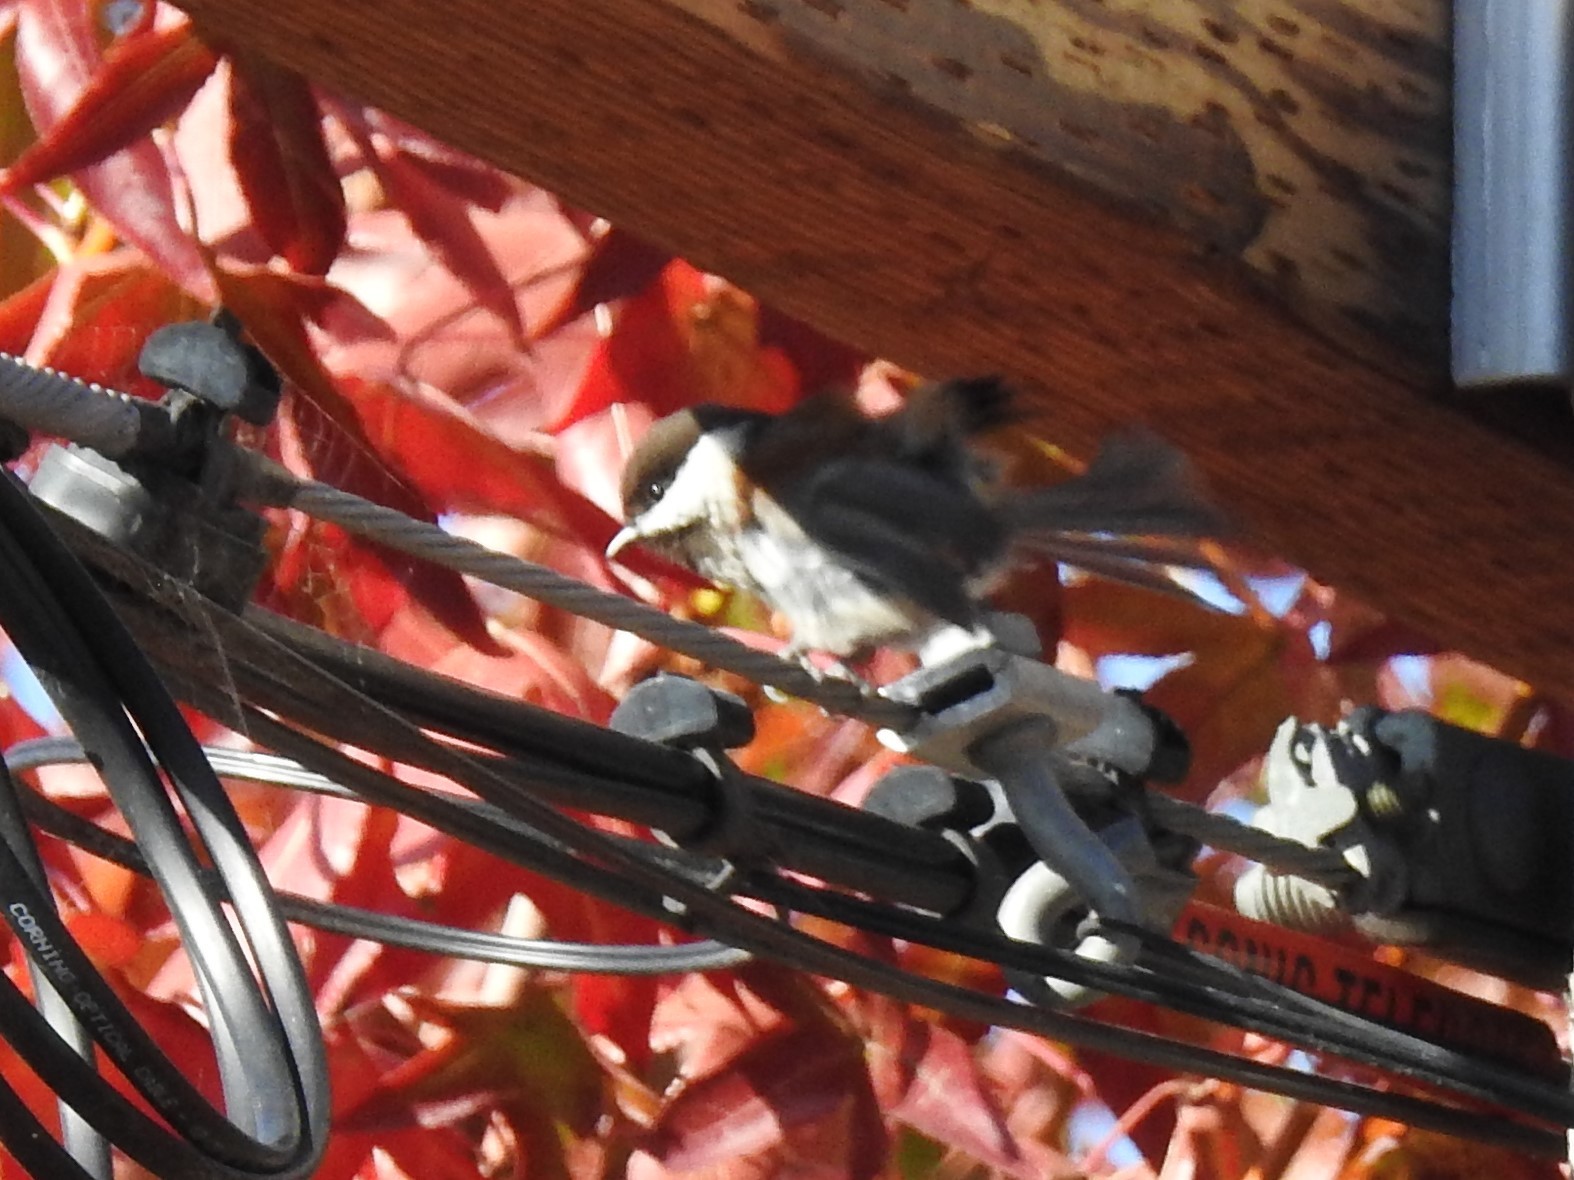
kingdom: Animalia
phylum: Chordata
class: Aves
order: Passeriformes
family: Paridae
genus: Poecile
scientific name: Poecile rufescens
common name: Chestnut-backed chickadee
